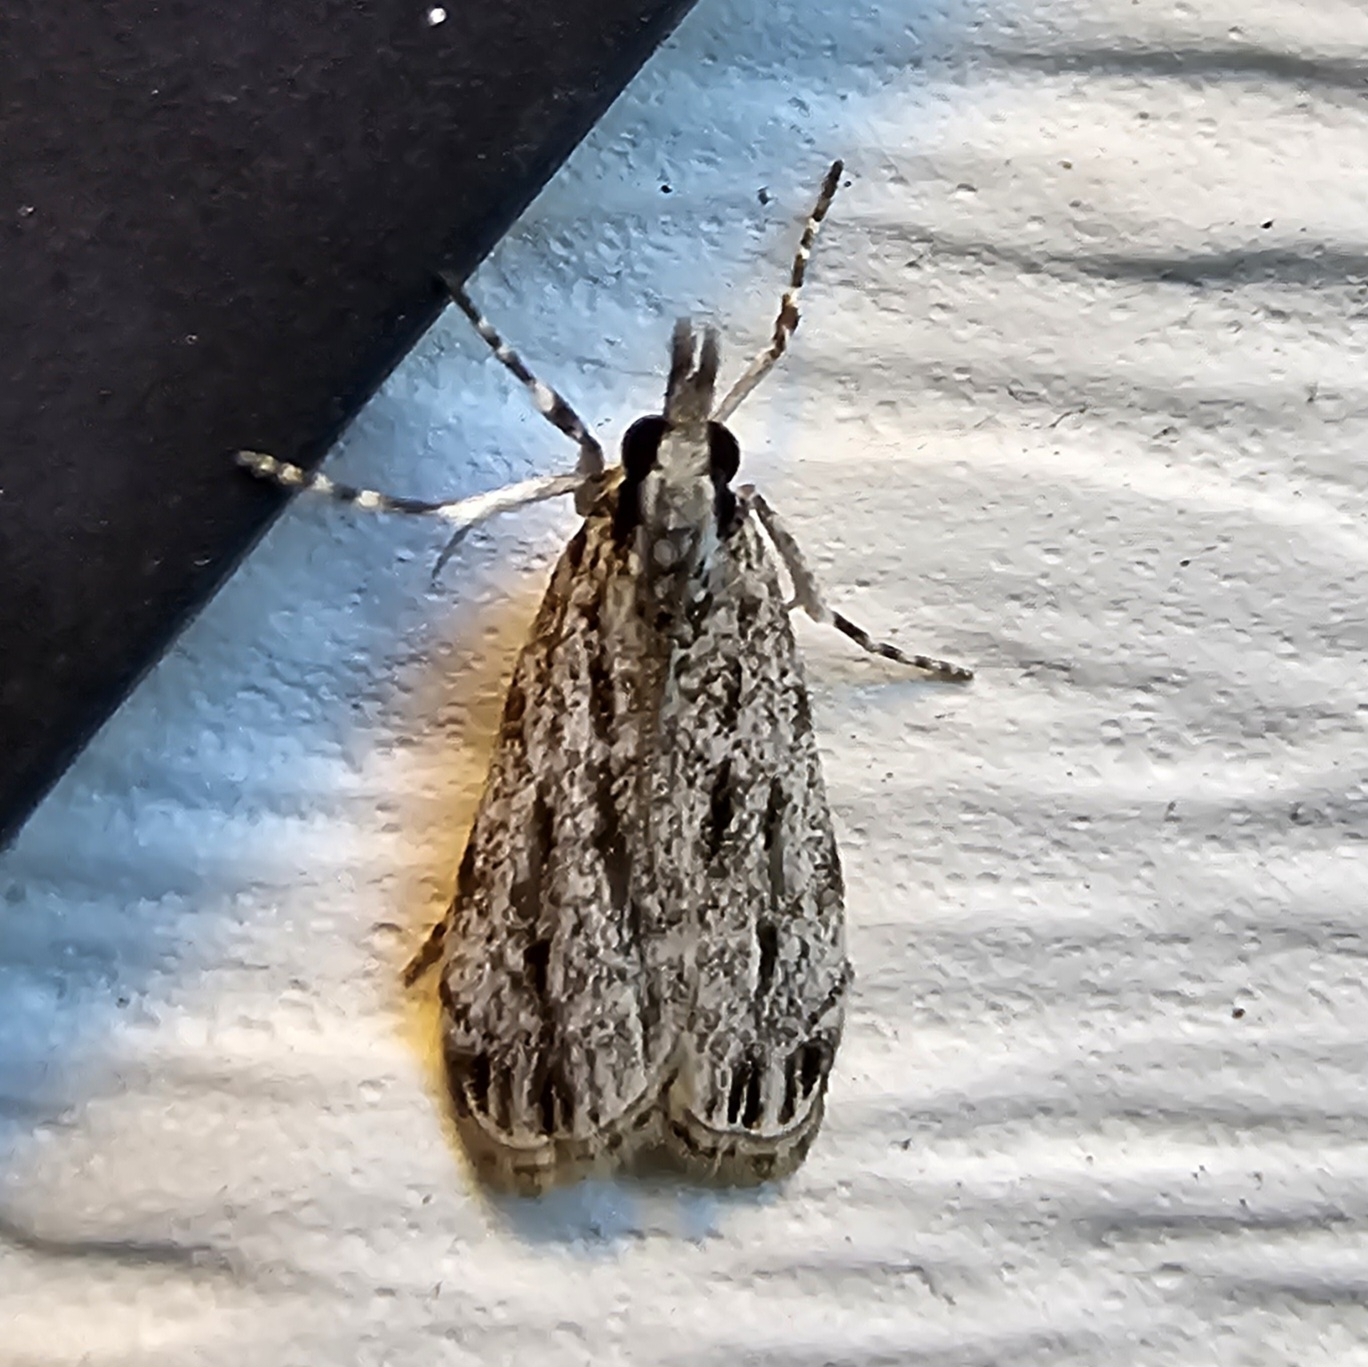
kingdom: Animalia
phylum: Arthropoda
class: Insecta
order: Lepidoptera
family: Crambidae
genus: Eudonia
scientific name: Eudonia strigalis
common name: Striped eudonia moth
